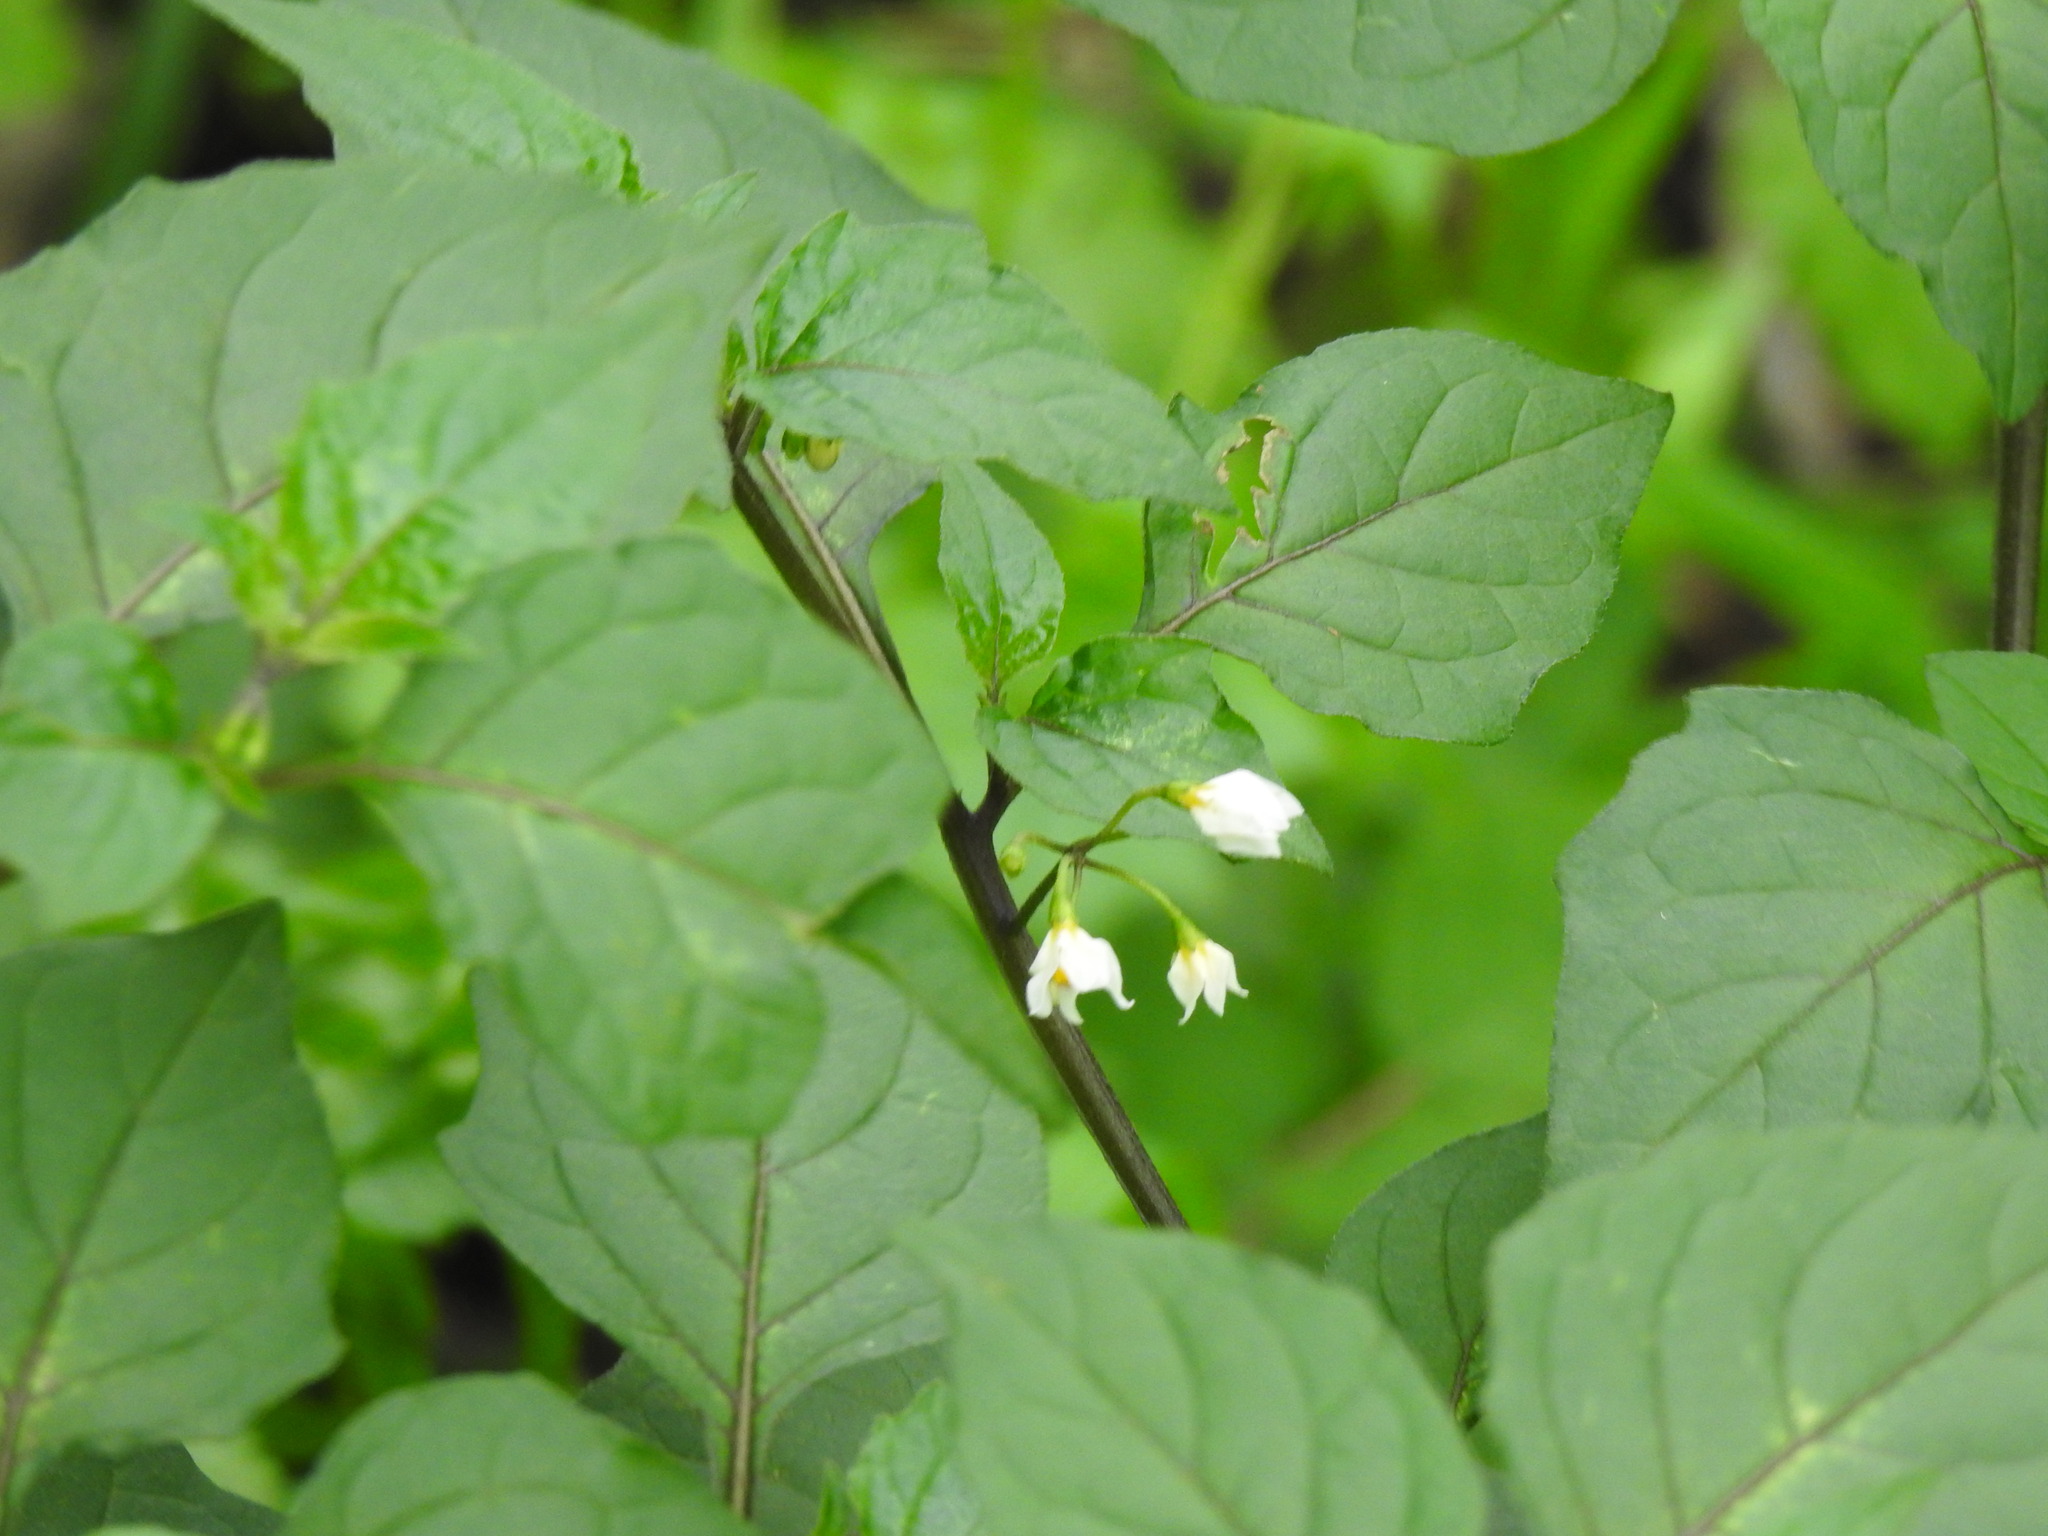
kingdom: Plantae
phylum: Tracheophyta
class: Magnoliopsida
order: Solanales
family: Solanaceae
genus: Solanum
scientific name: Solanum nigrum
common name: Black nightshade
